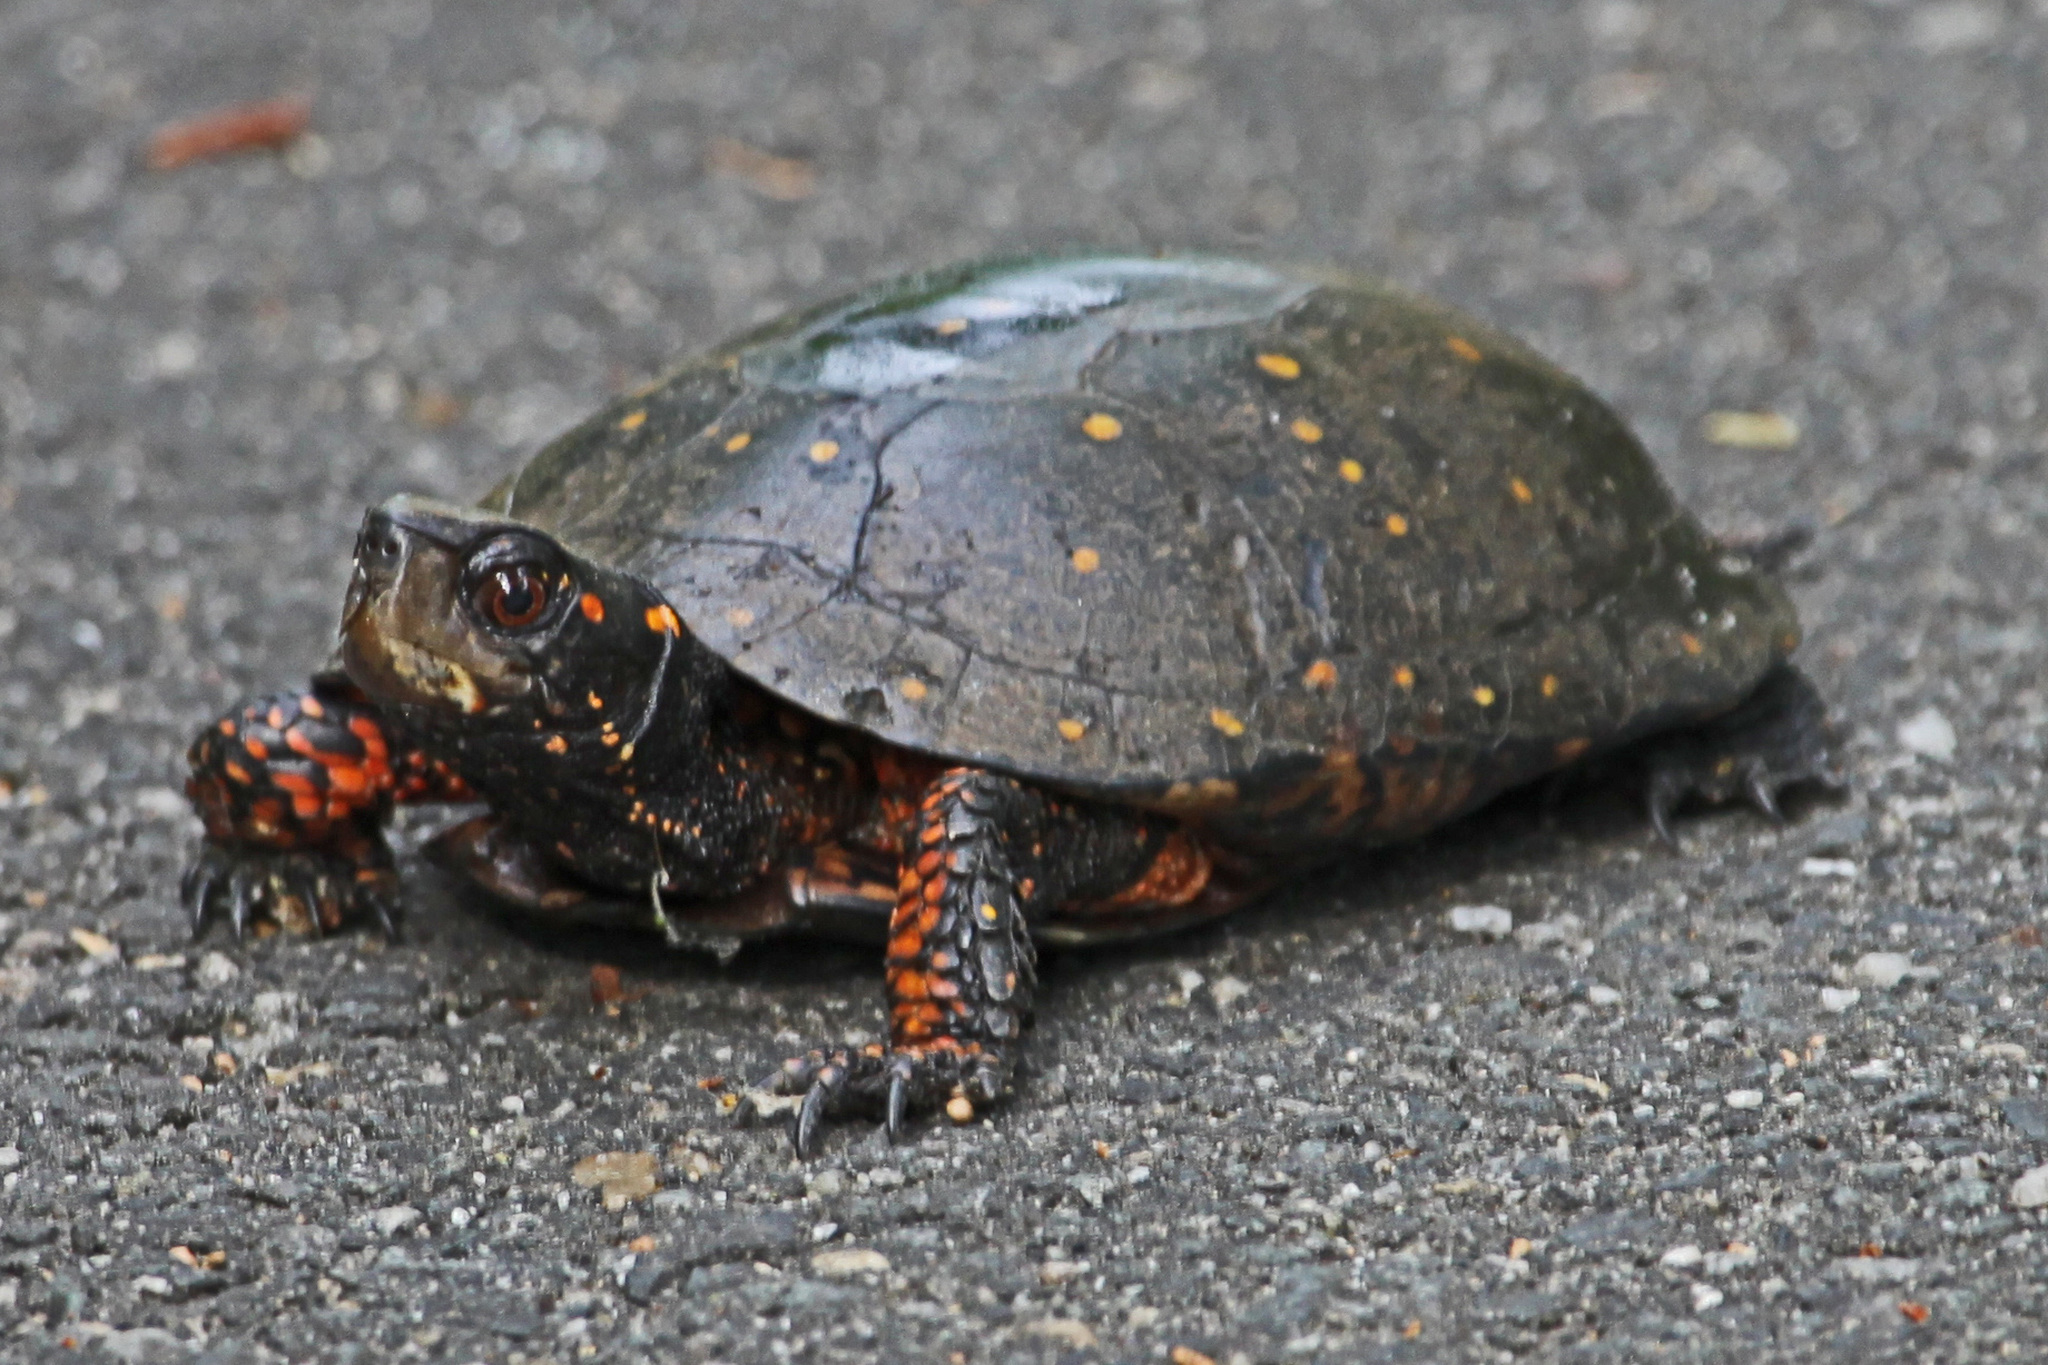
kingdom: Animalia
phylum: Chordata
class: Testudines
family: Emydidae
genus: Clemmys
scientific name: Clemmys guttata
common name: Spotted turtle
